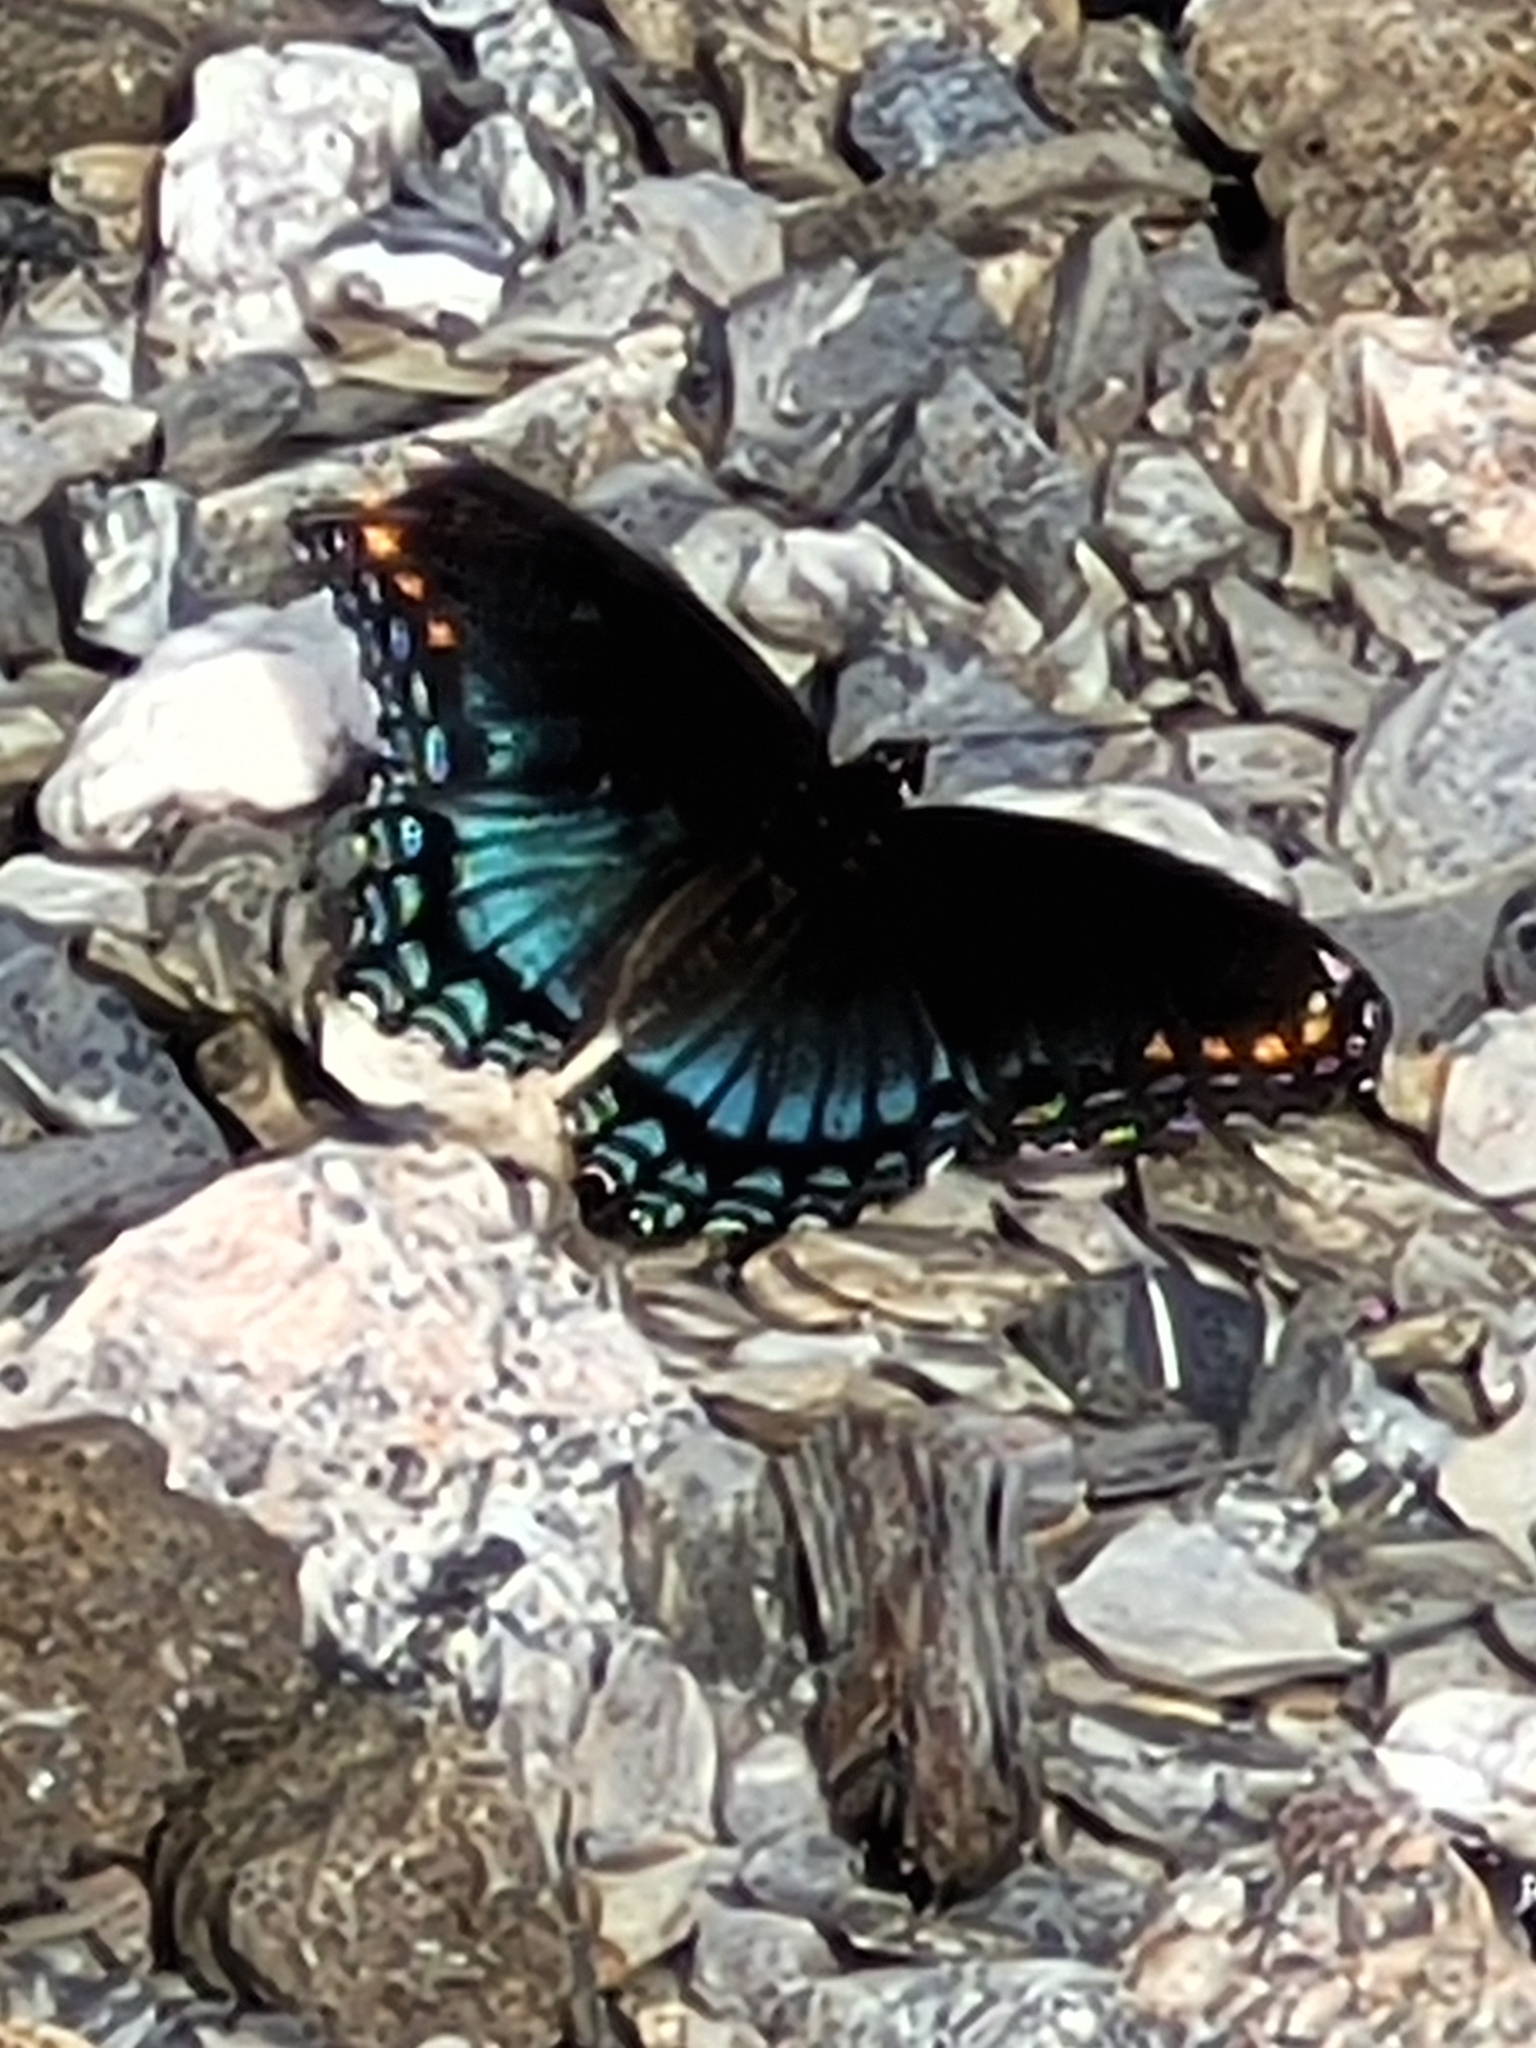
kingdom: Animalia
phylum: Arthropoda
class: Insecta
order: Lepidoptera
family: Nymphalidae
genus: Limenitis
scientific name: Limenitis astyanax
